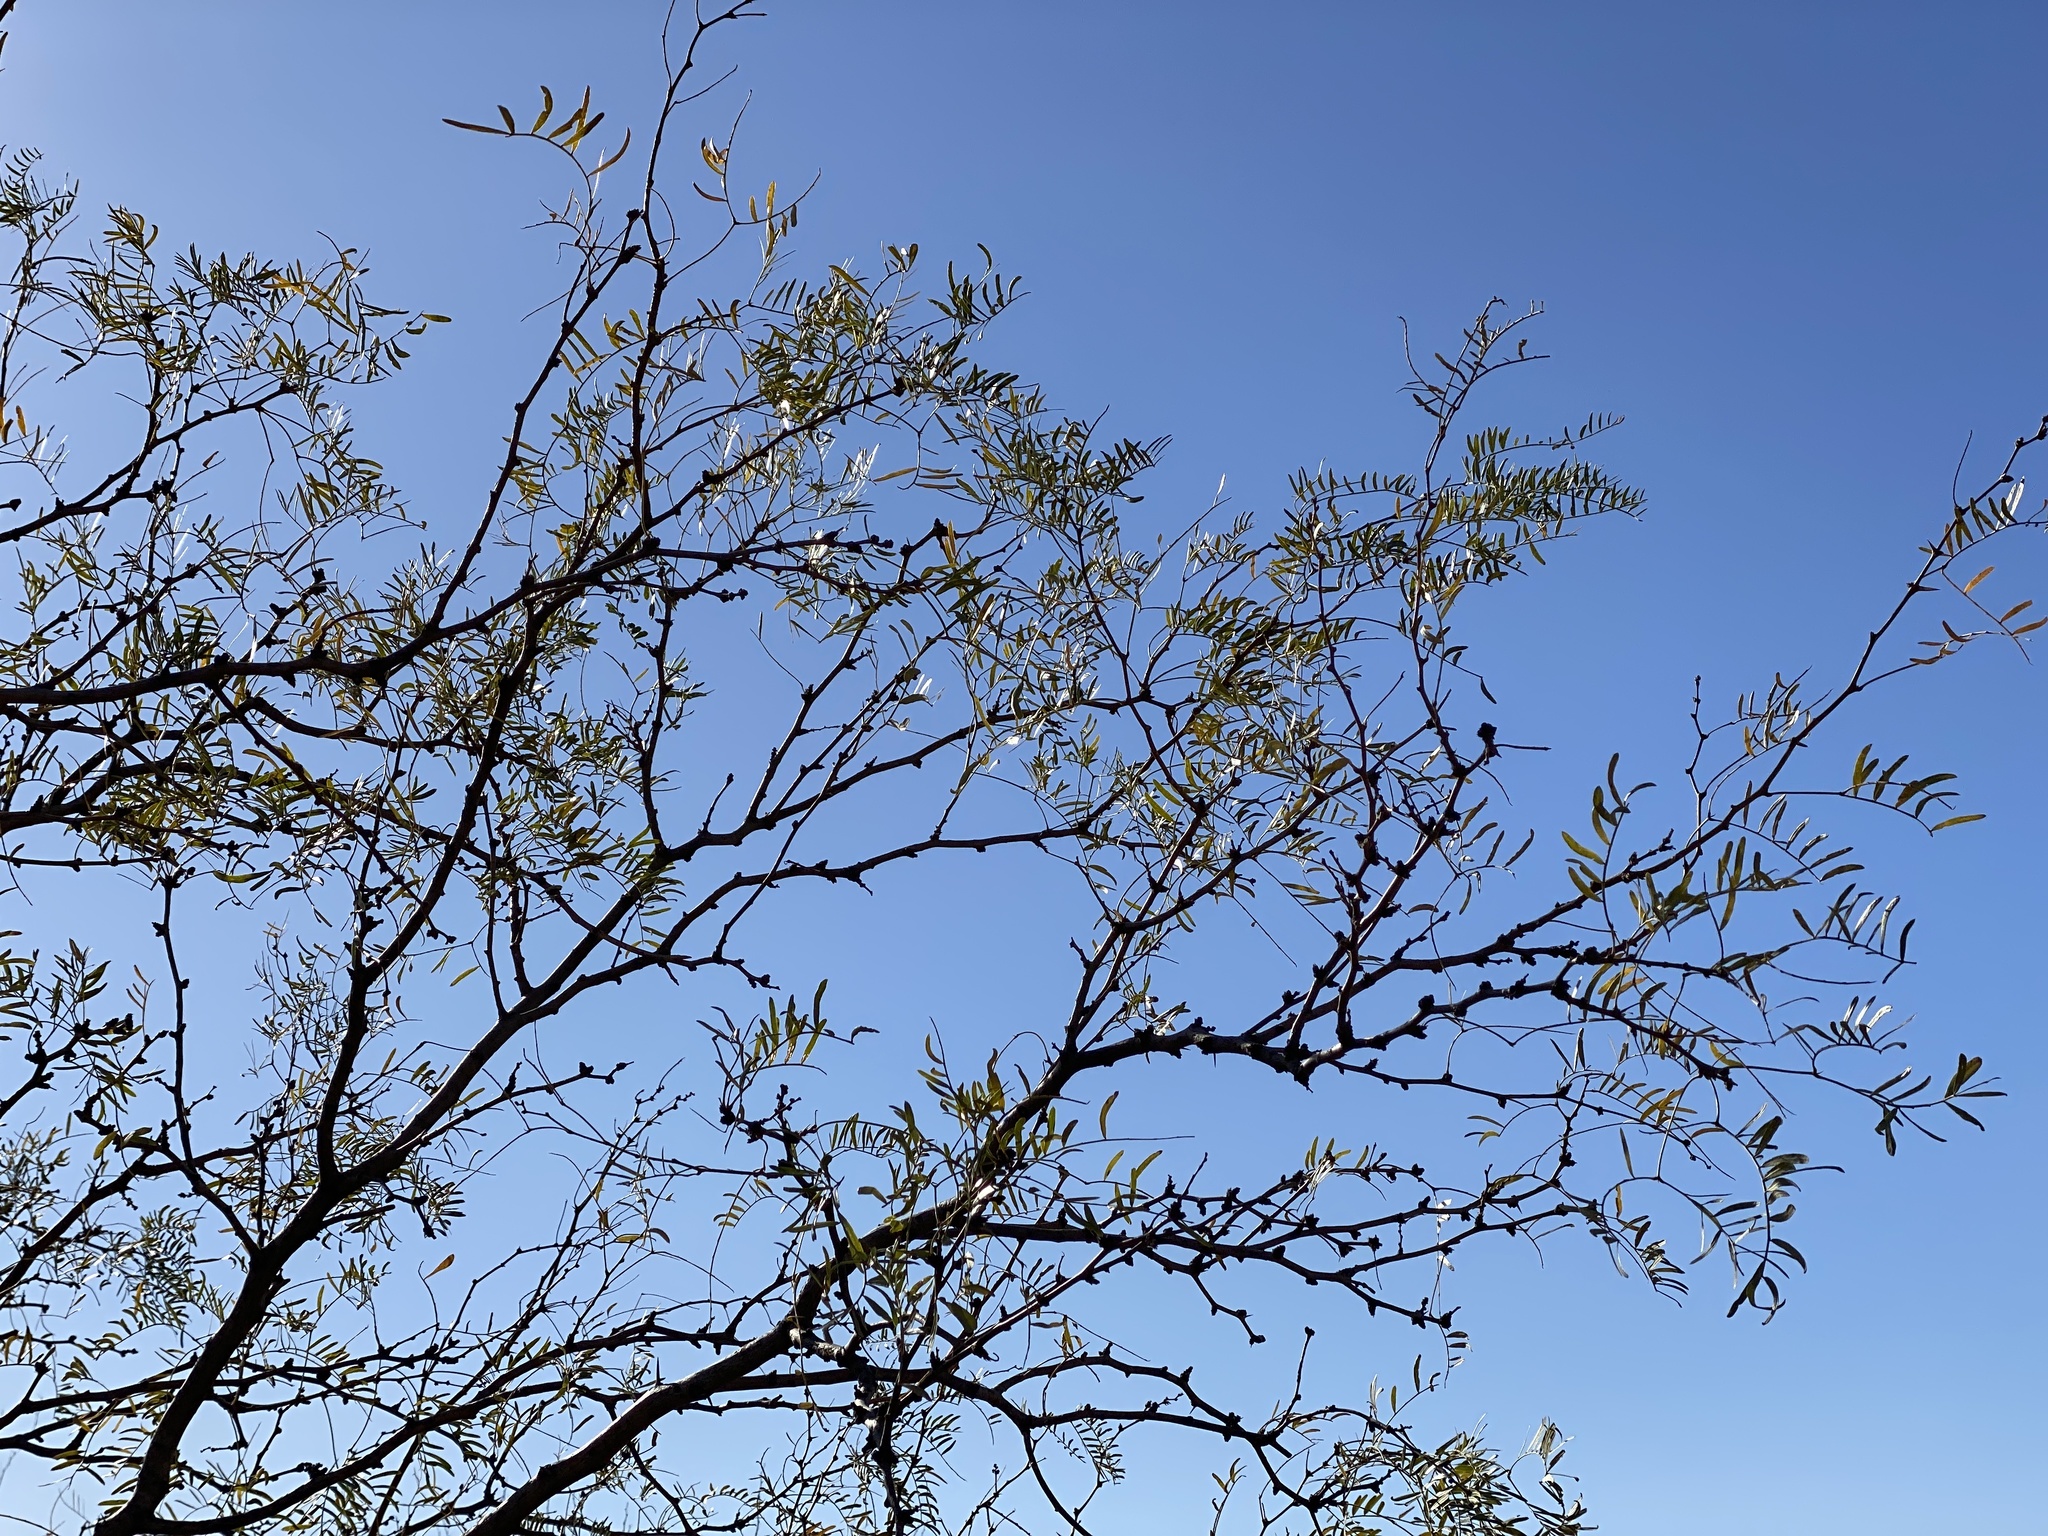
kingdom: Plantae
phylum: Tracheophyta
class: Magnoliopsida
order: Fabales
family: Fabaceae
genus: Prosopis
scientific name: Prosopis glandulosa
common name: Honey mesquite
